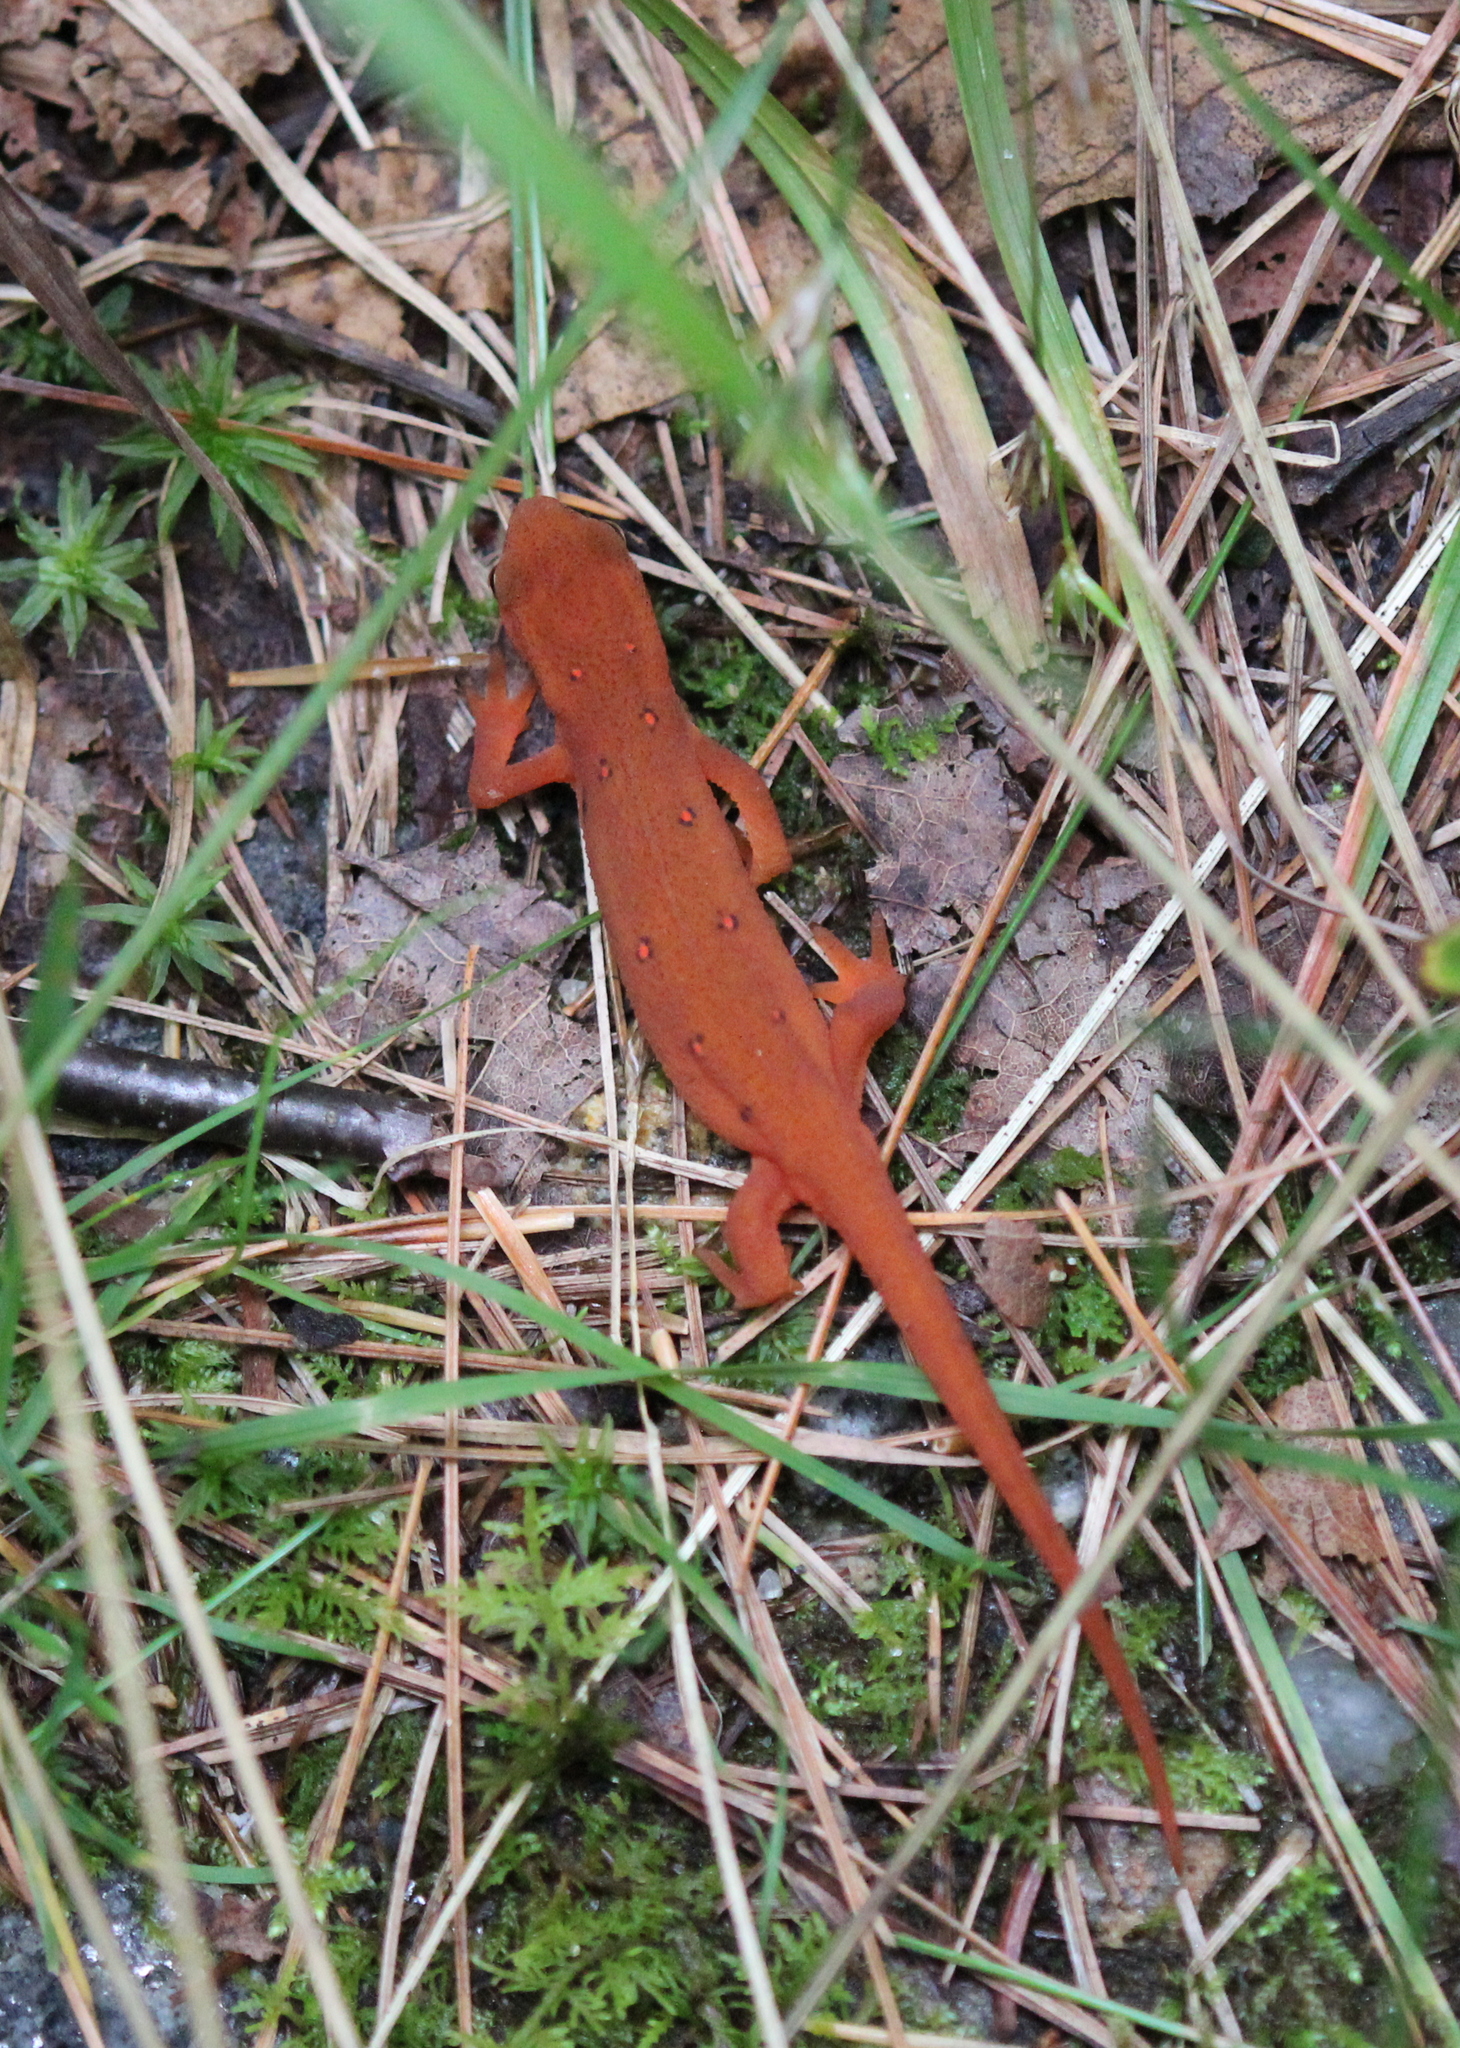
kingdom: Animalia
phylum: Chordata
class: Amphibia
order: Caudata
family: Salamandridae
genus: Notophthalmus
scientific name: Notophthalmus viridescens
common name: Eastern newt
